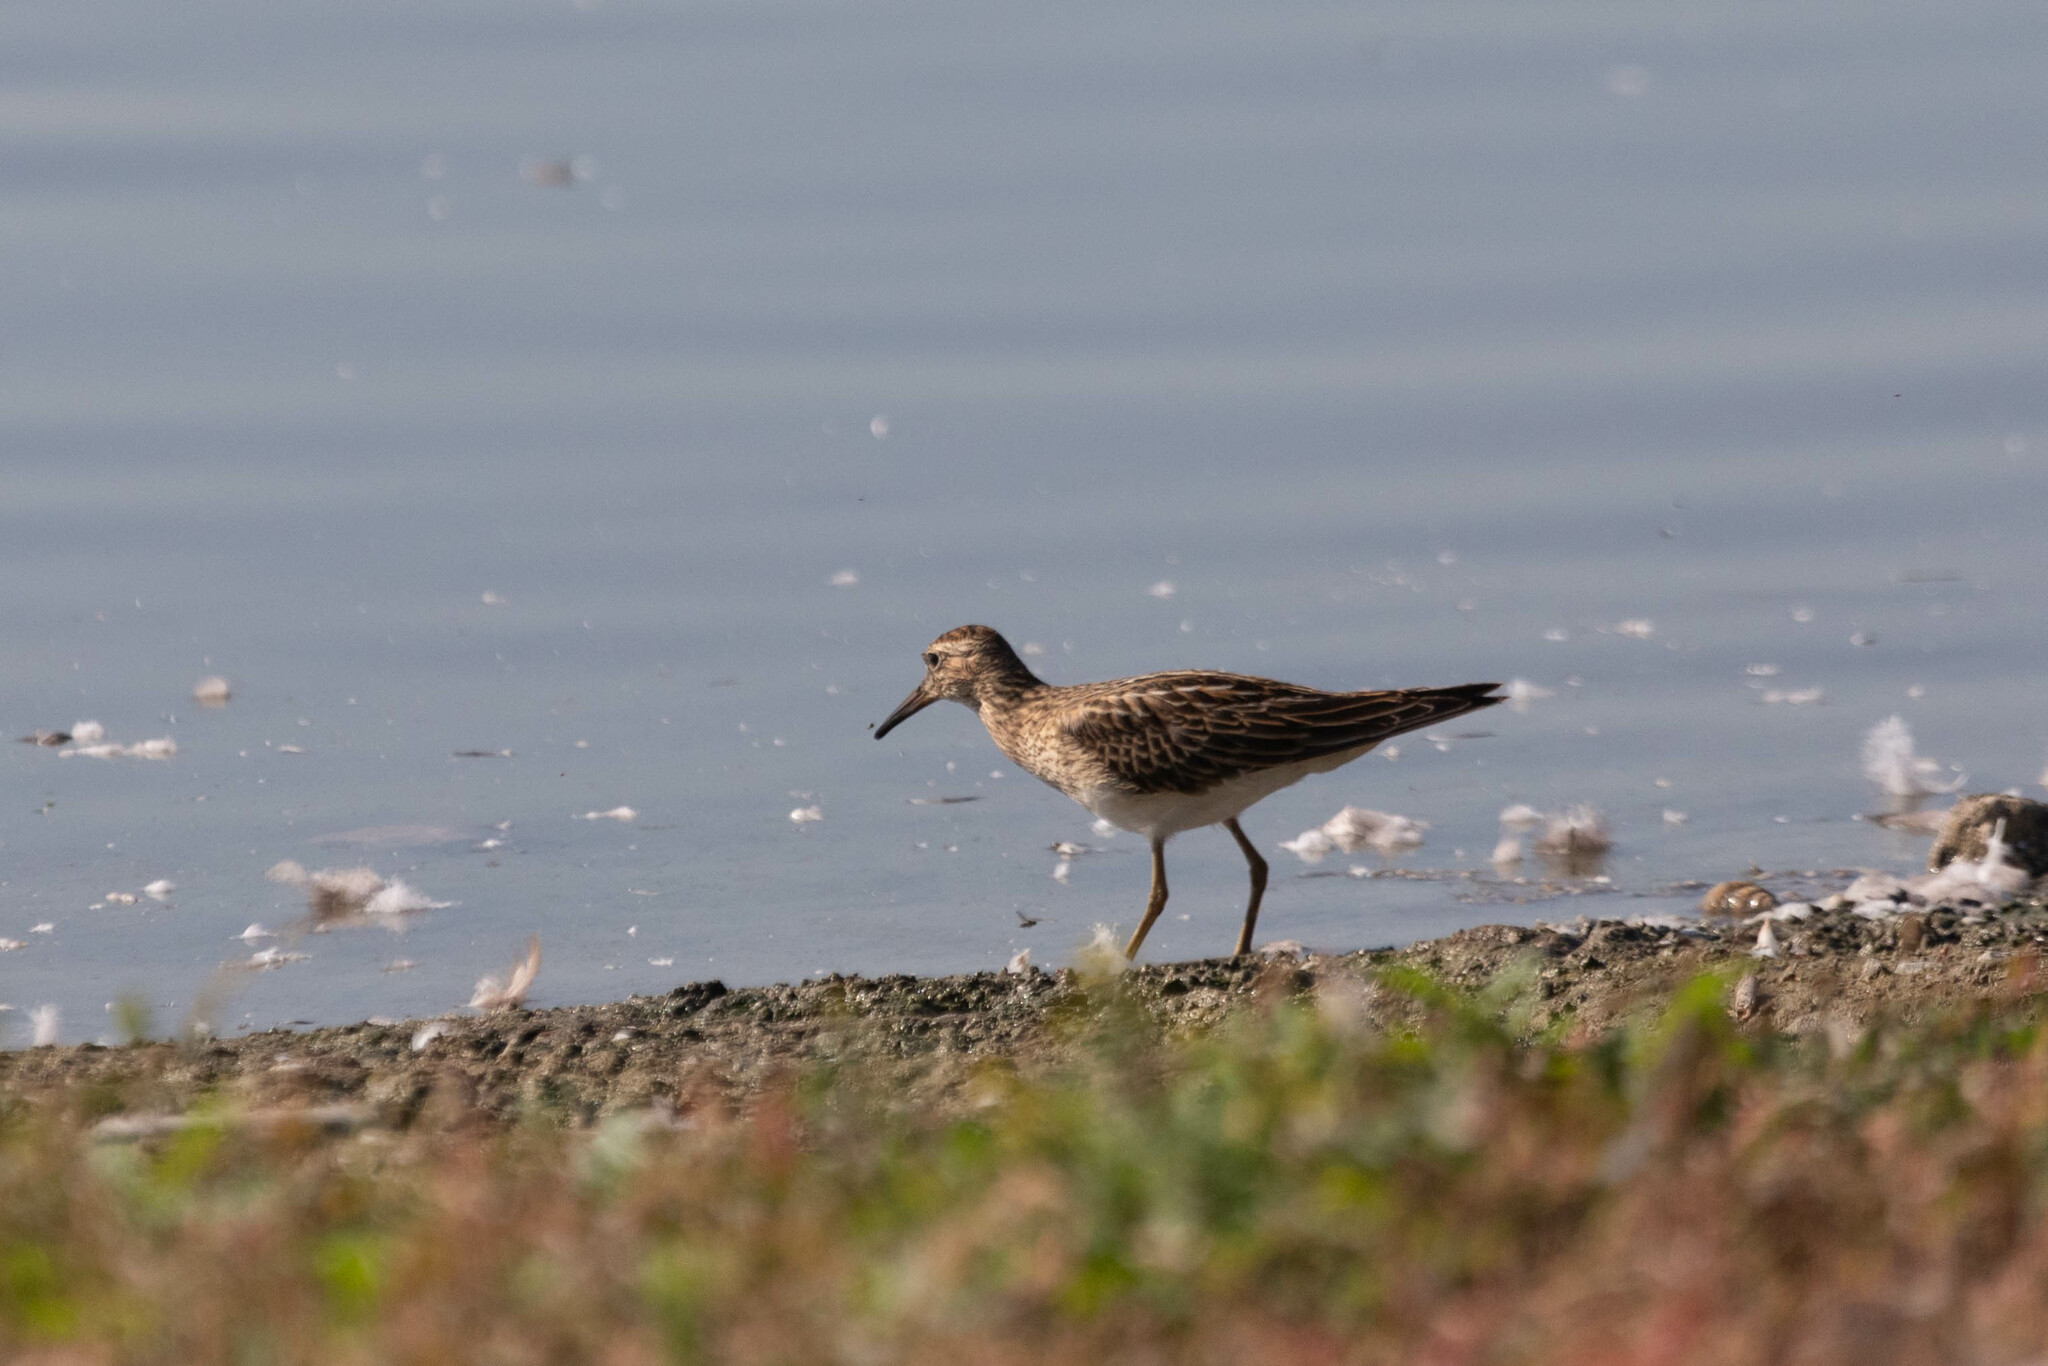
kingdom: Animalia
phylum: Chordata
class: Aves
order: Charadriiformes
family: Scolopacidae
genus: Calidris
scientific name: Calidris melanotos
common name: Pectoral sandpiper
